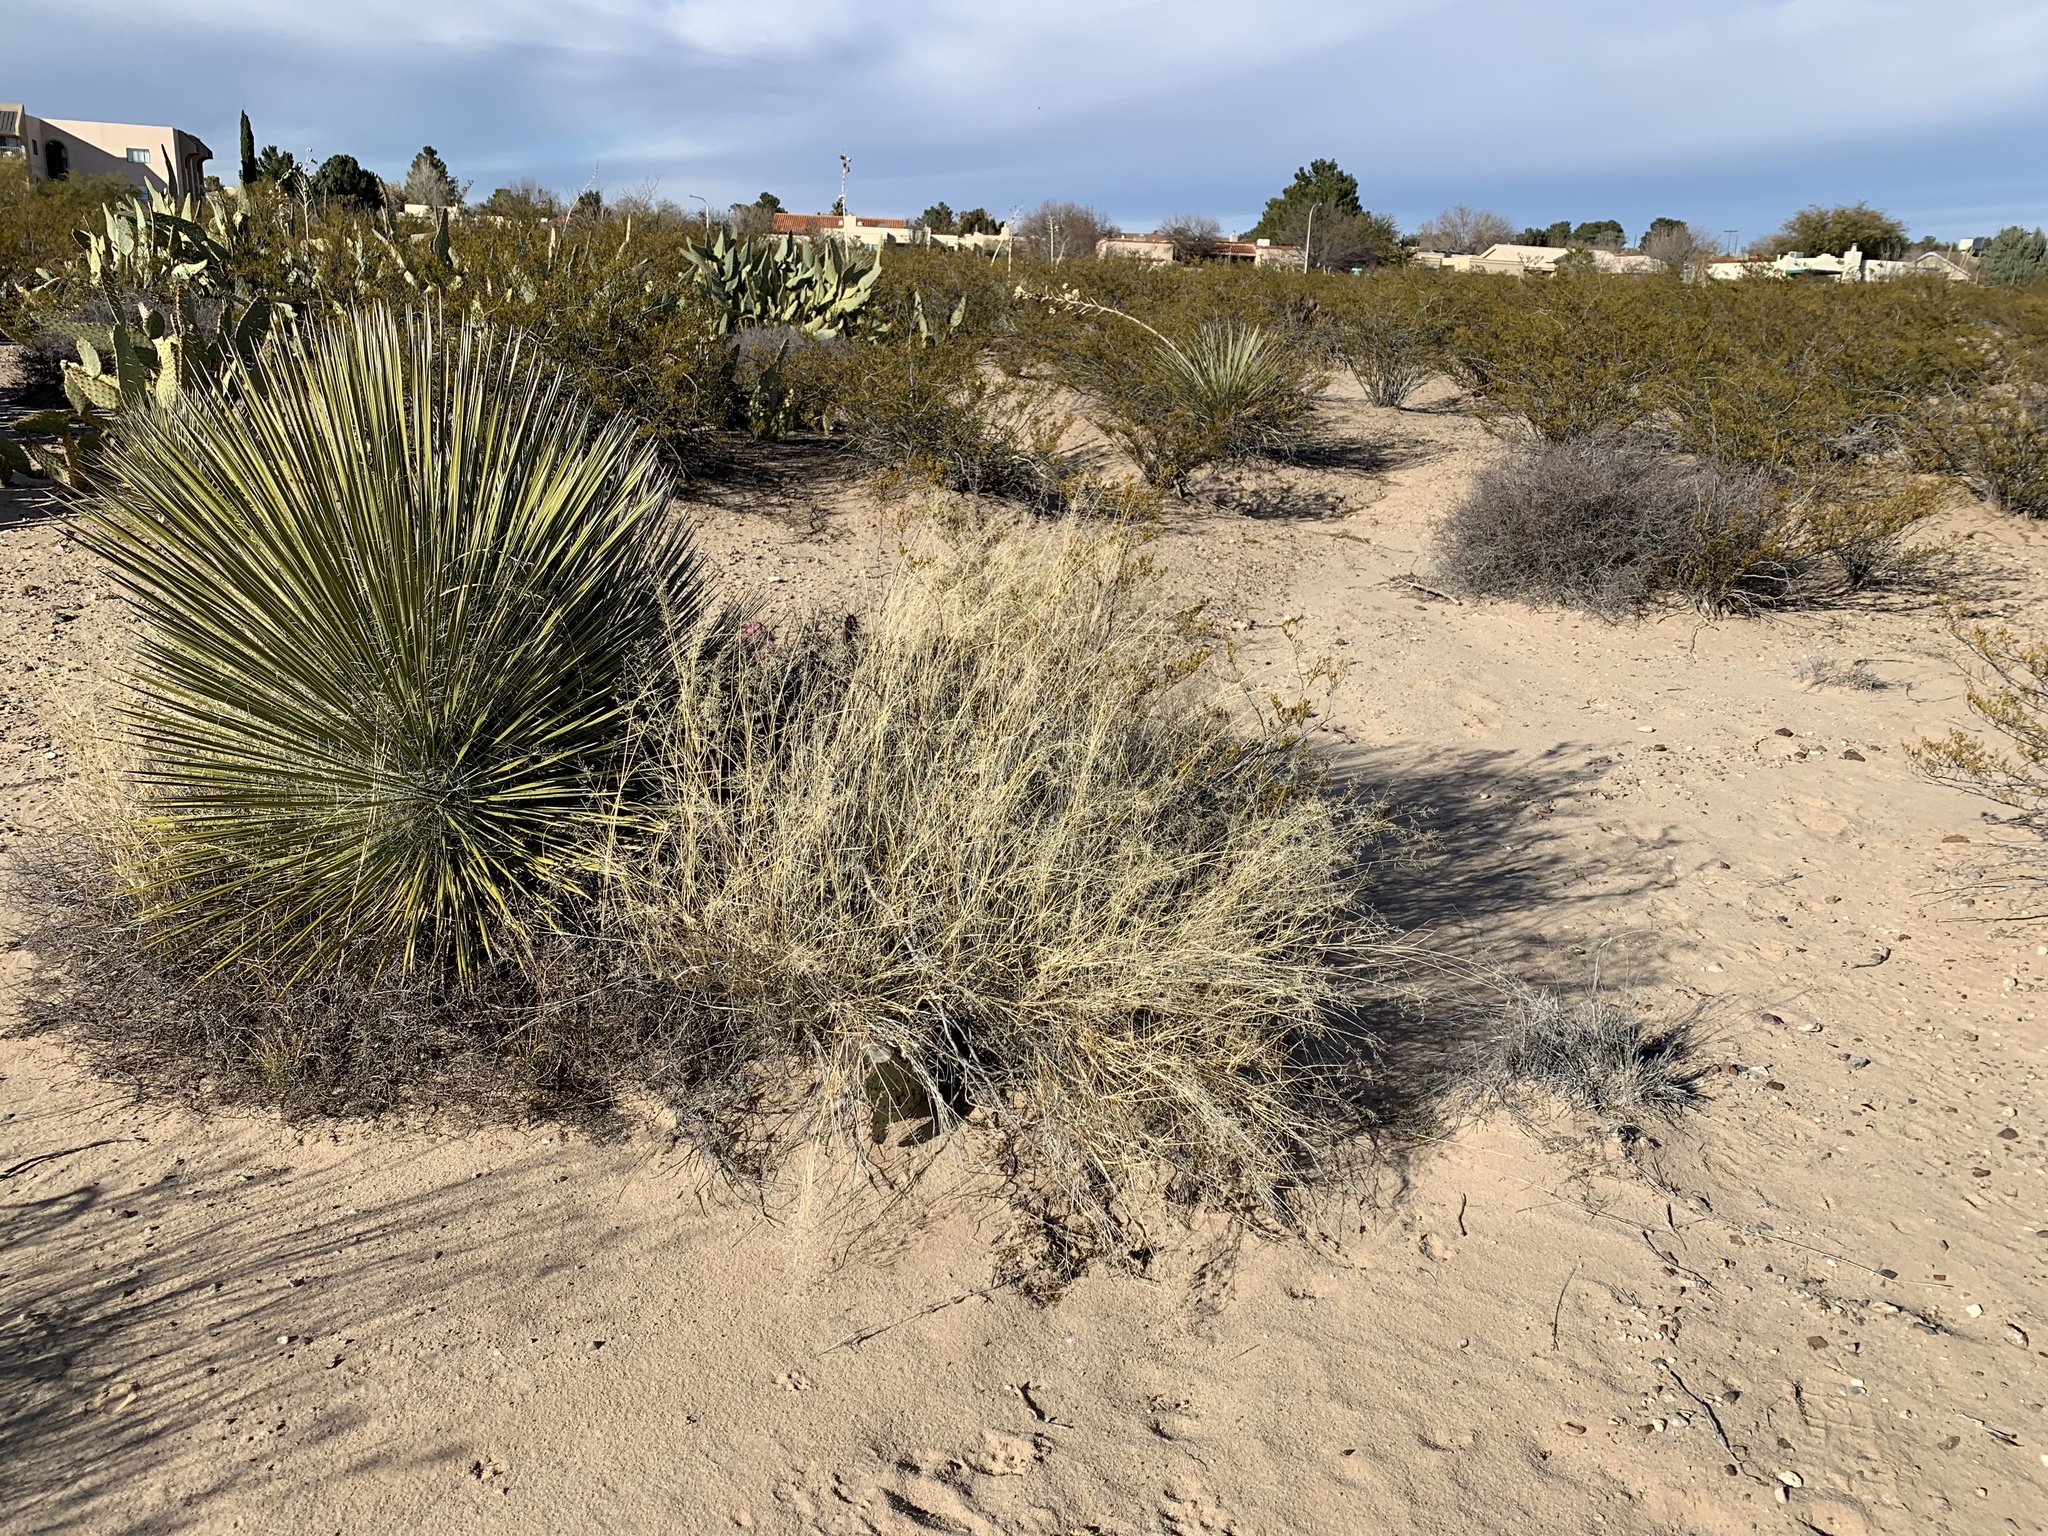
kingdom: Plantae
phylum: Tracheophyta
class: Liliopsida
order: Asparagales
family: Asparagaceae
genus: Yucca
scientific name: Yucca elata
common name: Palmella
